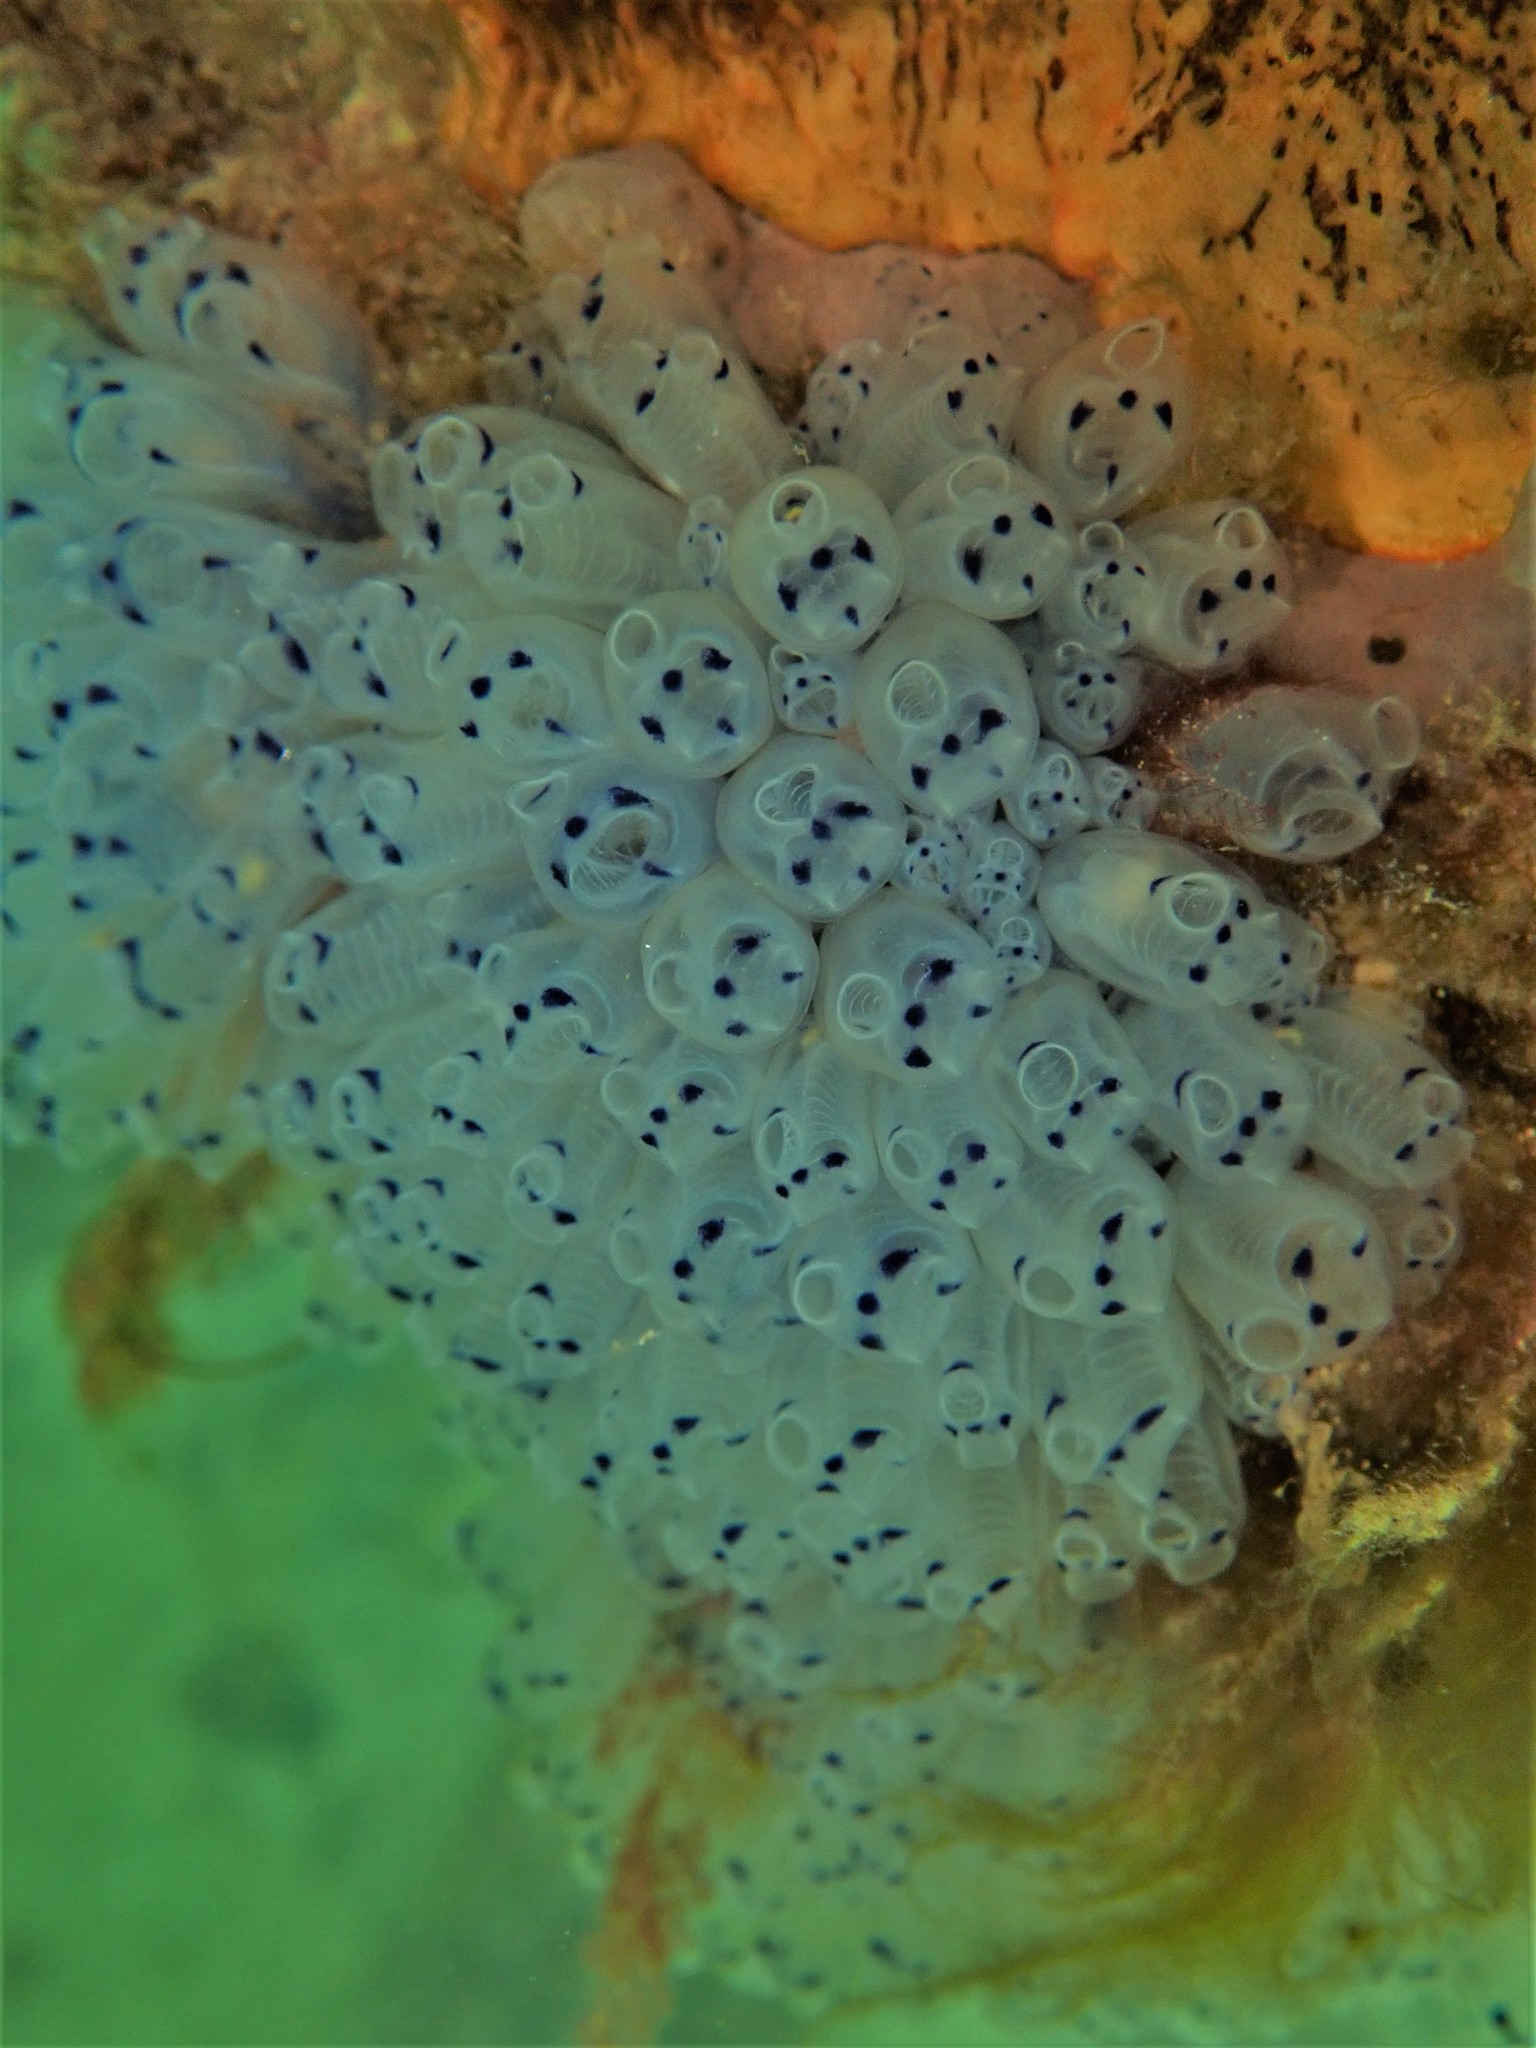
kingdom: Animalia
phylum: Chordata
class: Ascidiacea
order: Aplousobranchia
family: Clavelinidae
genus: Clavelina
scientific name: Clavelina moluccensis
